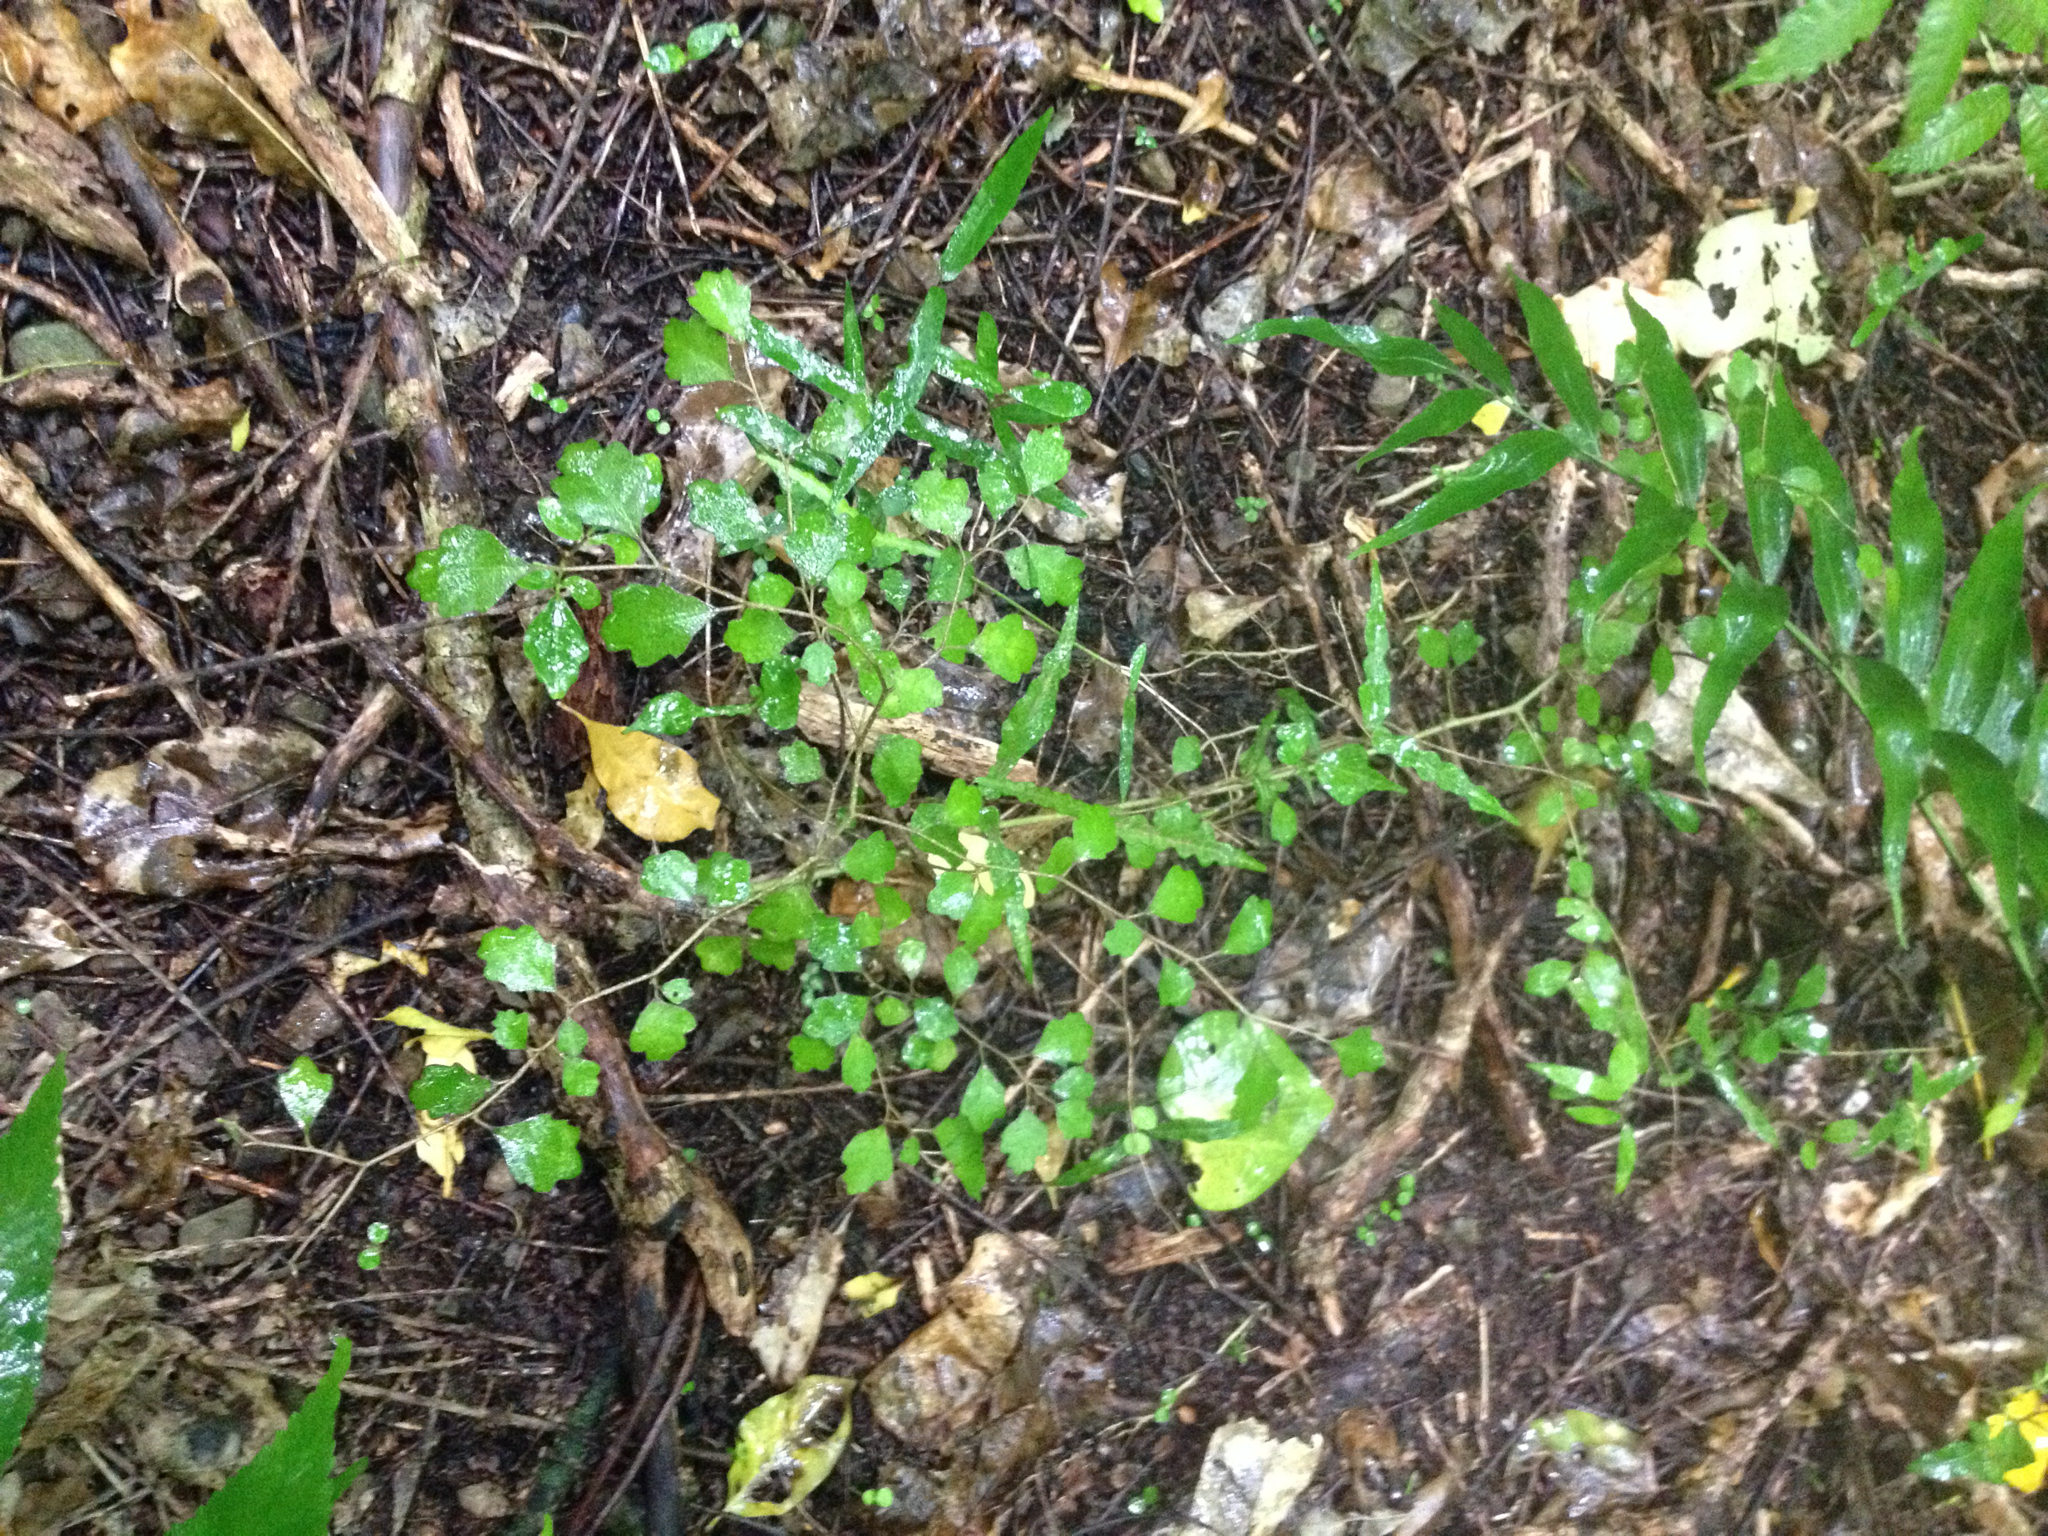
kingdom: Plantae
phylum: Tracheophyta
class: Magnoliopsida
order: Apiales
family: Pennantiaceae
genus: Pennantia
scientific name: Pennantia corymbosa
